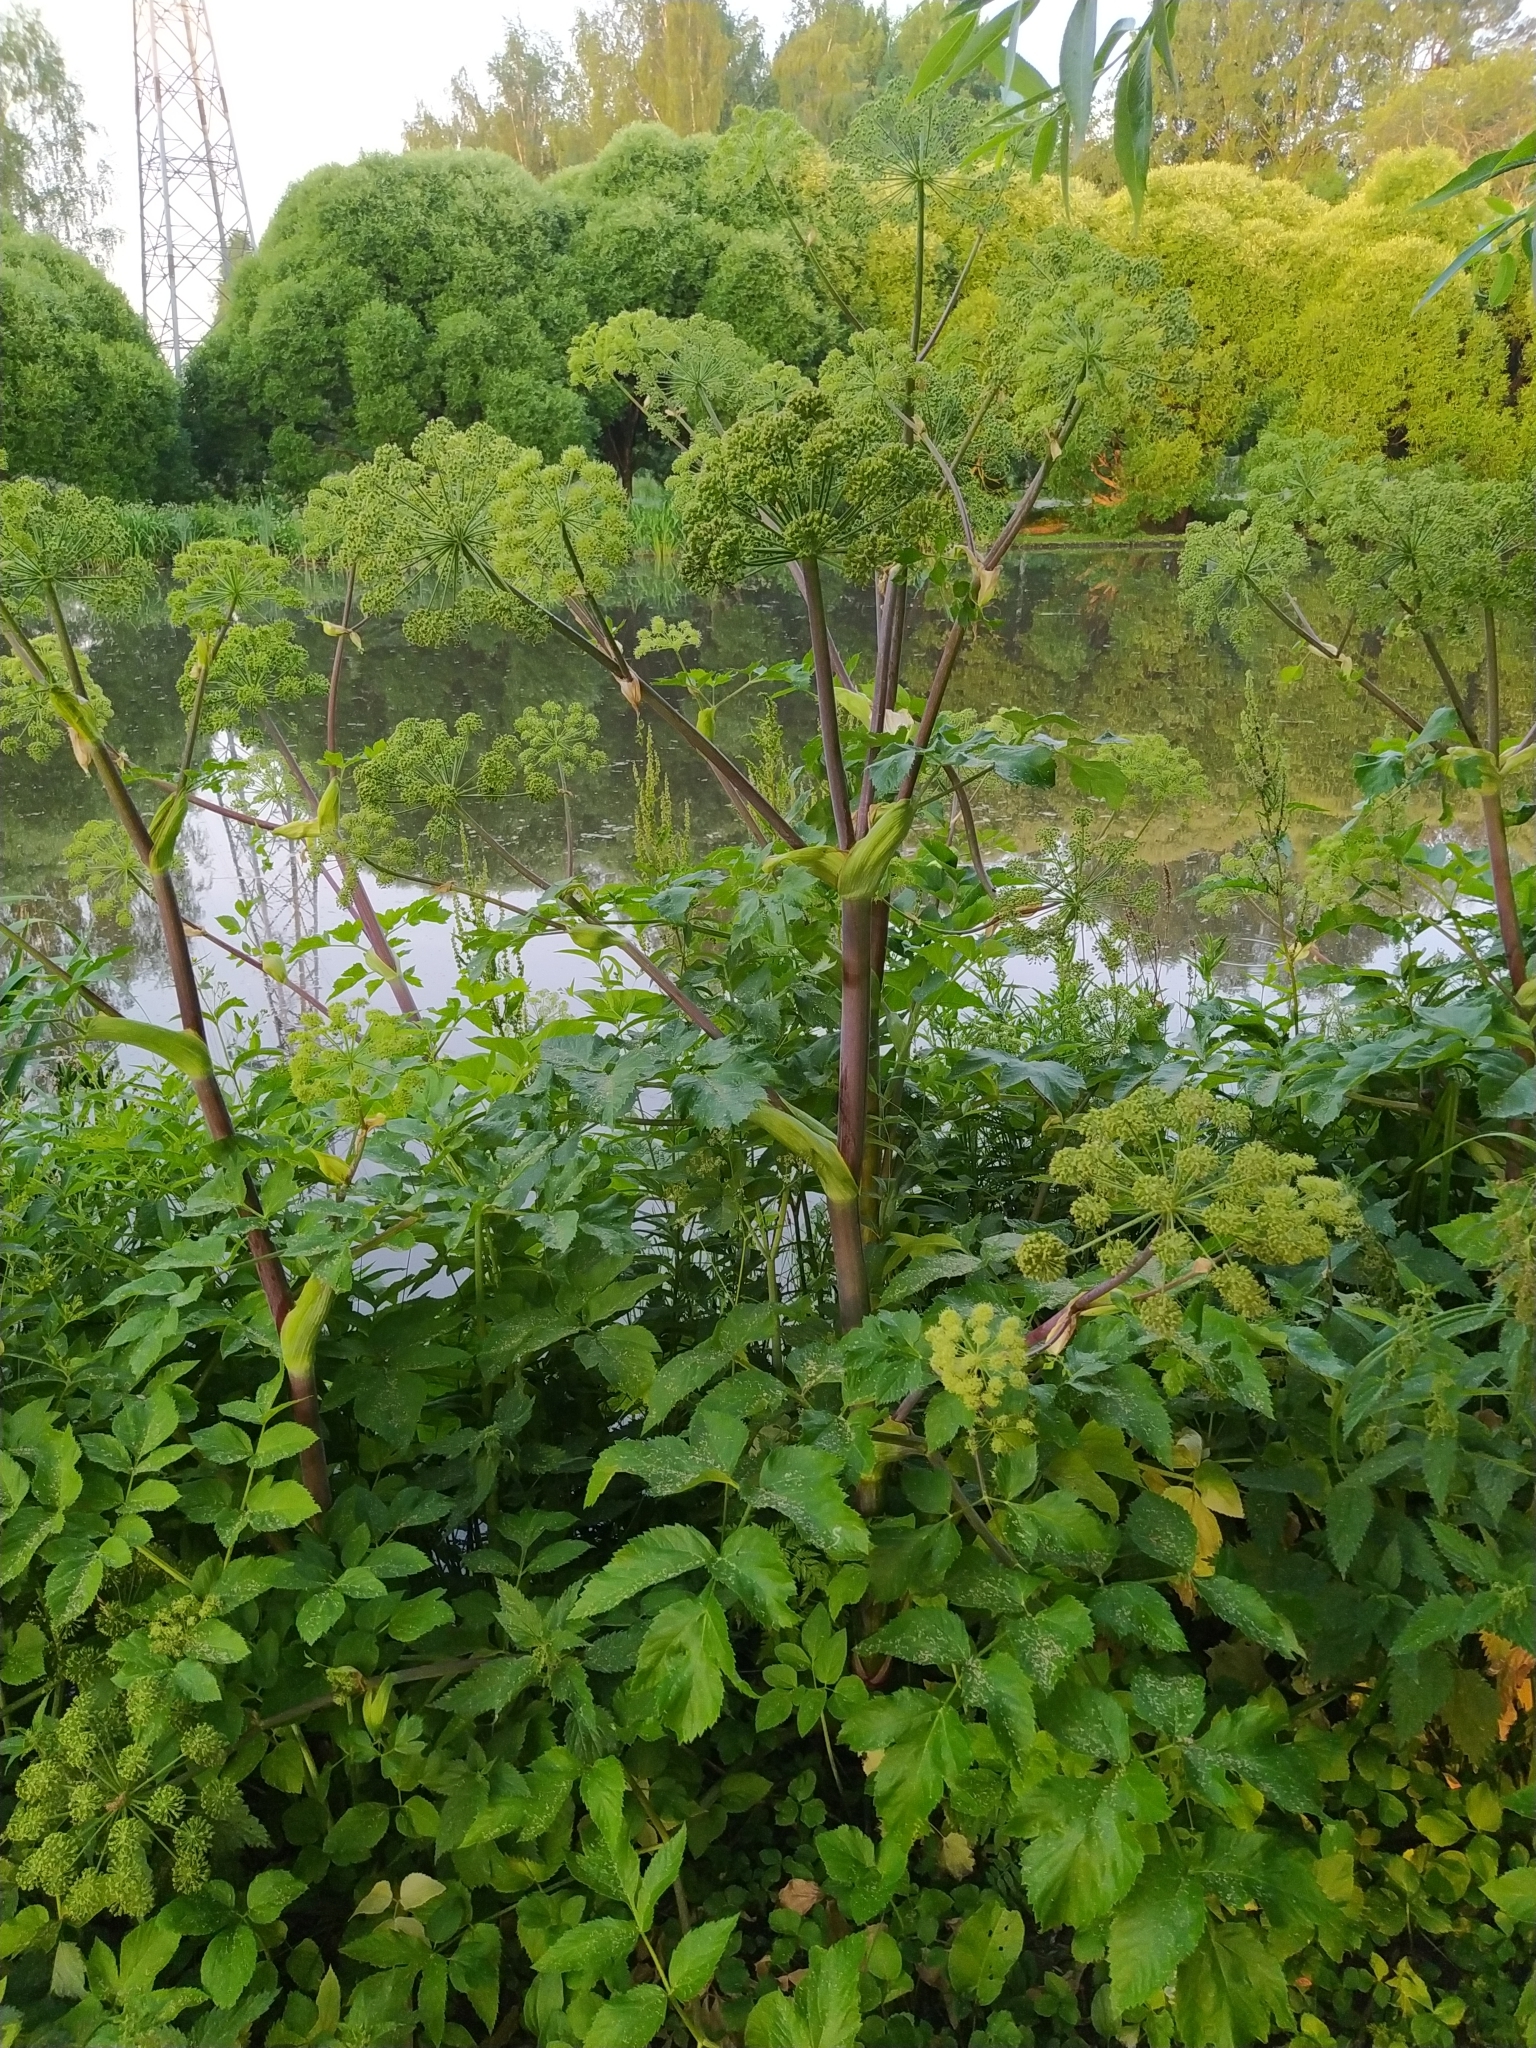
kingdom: Plantae
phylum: Tracheophyta
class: Magnoliopsida
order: Apiales
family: Apiaceae
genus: Angelica
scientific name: Angelica archangelica
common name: Garden angelica
